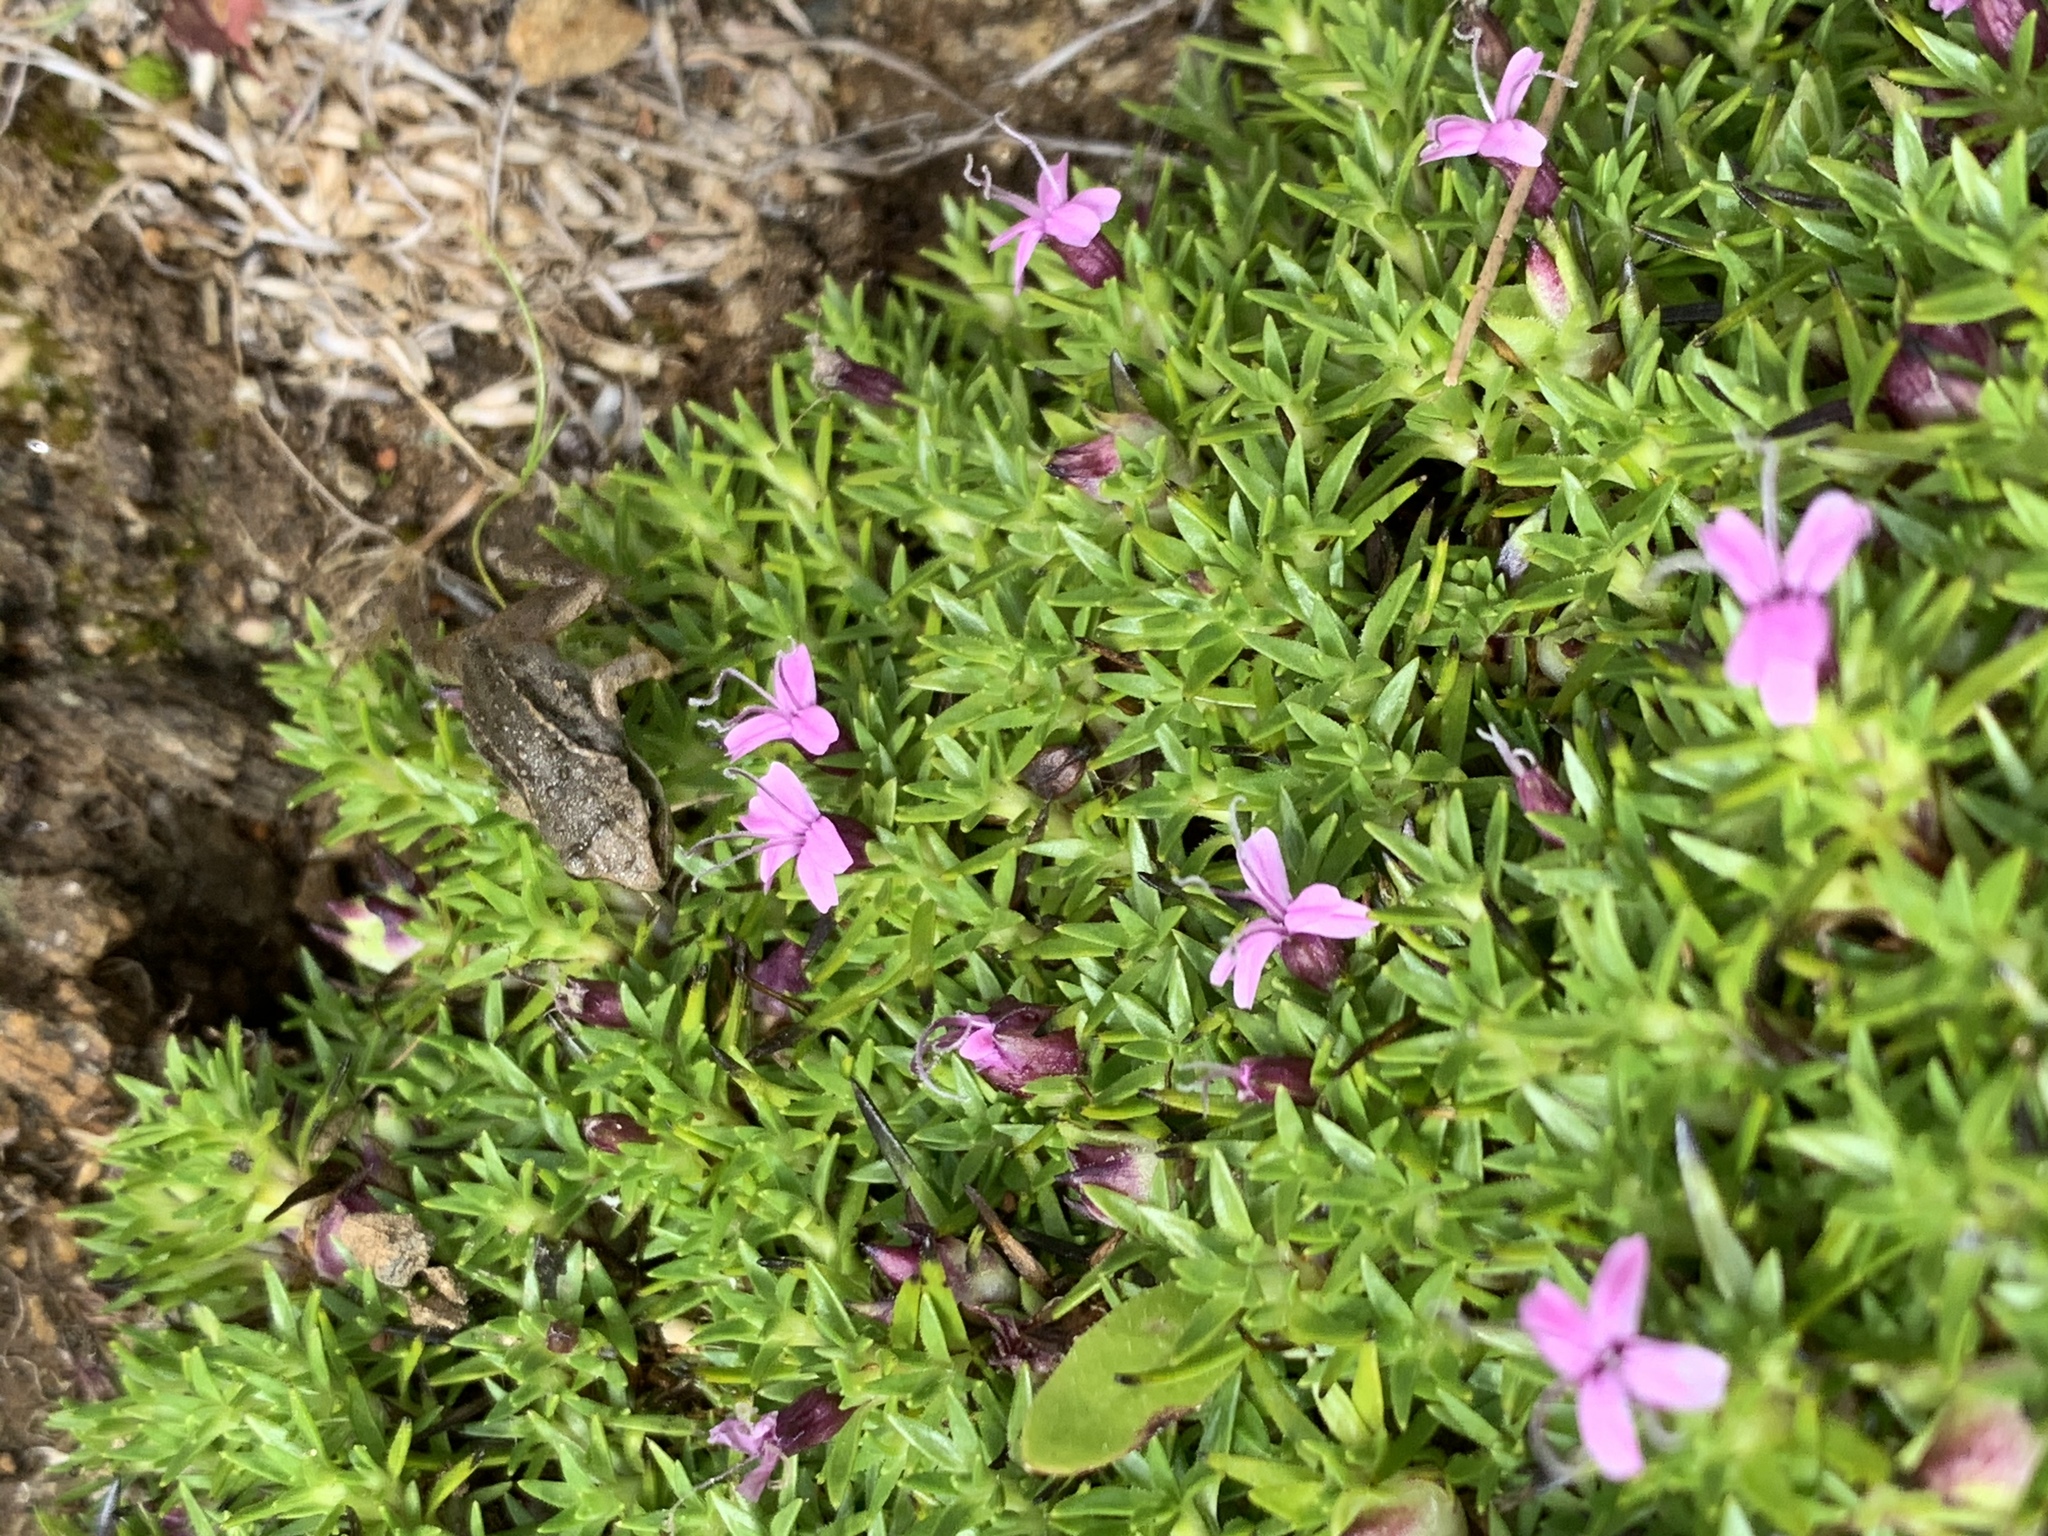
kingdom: Plantae
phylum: Tracheophyta
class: Magnoliopsida
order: Caryophyllales
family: Caryophyllaceae
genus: Silene
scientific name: Silene acaulis
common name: Moss campion
